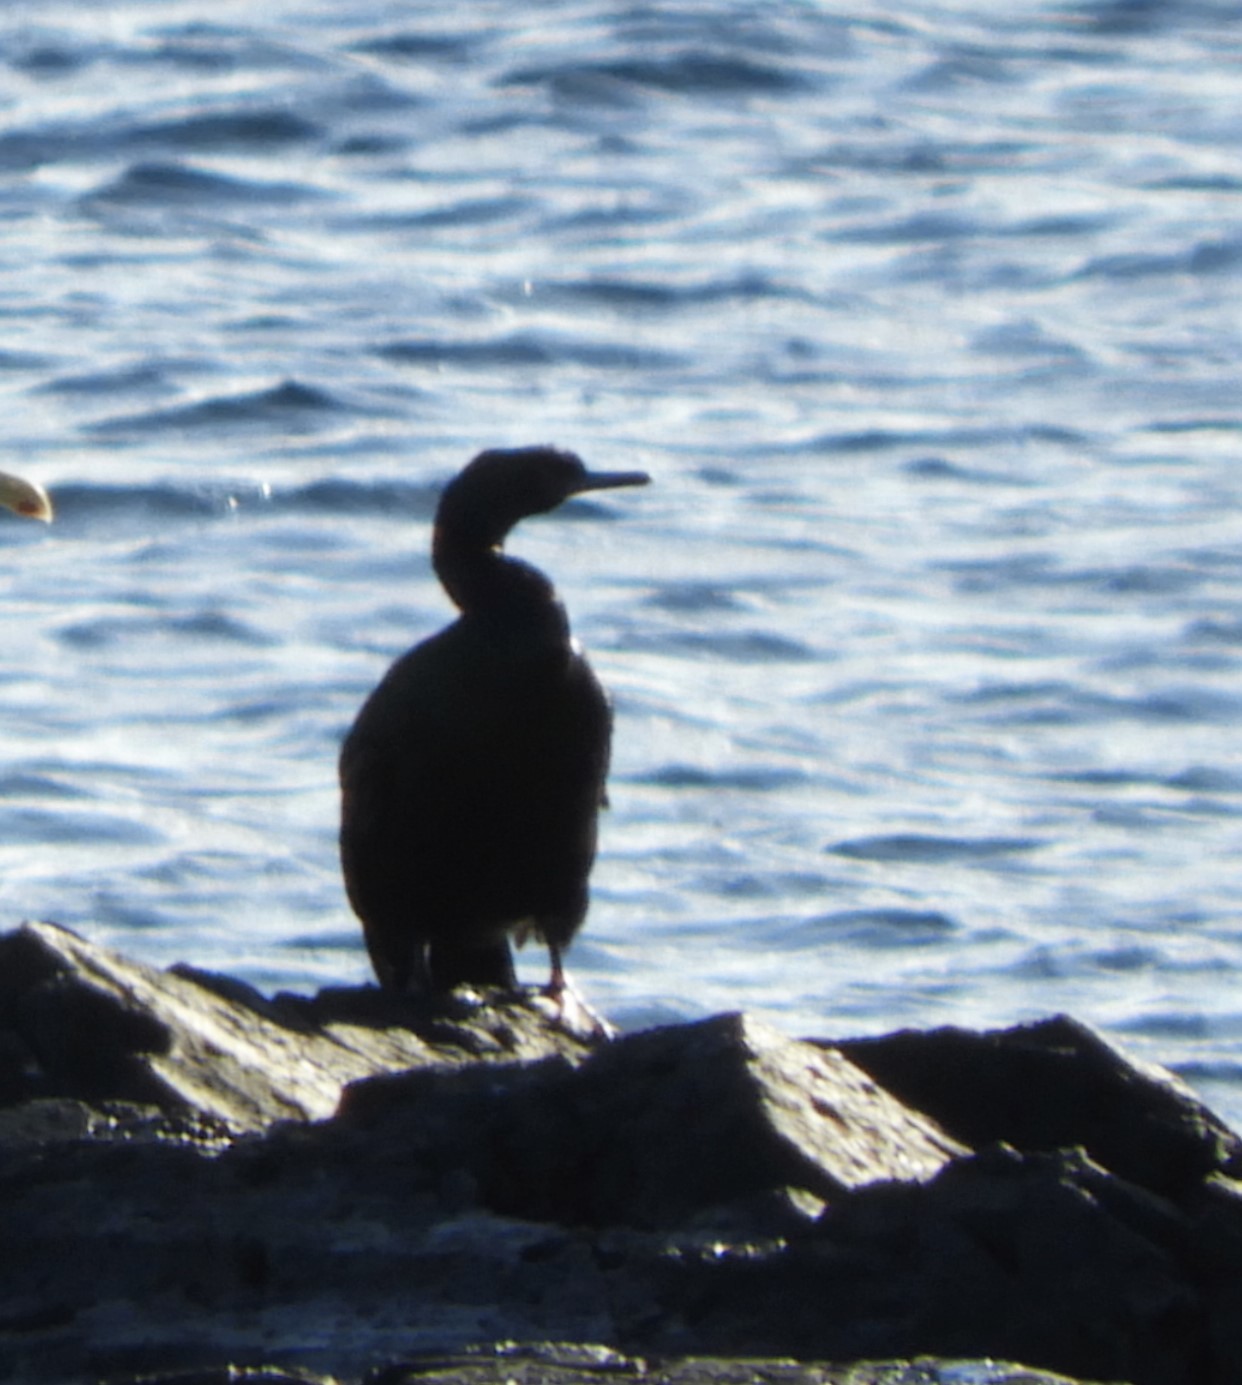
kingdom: Animalia
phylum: Chordata
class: Aves
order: Suliformes
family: Phalacrocoracidae
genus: Phalacrocorax
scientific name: Phalacrocorax pelagicus
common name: Pelagic cormorant
